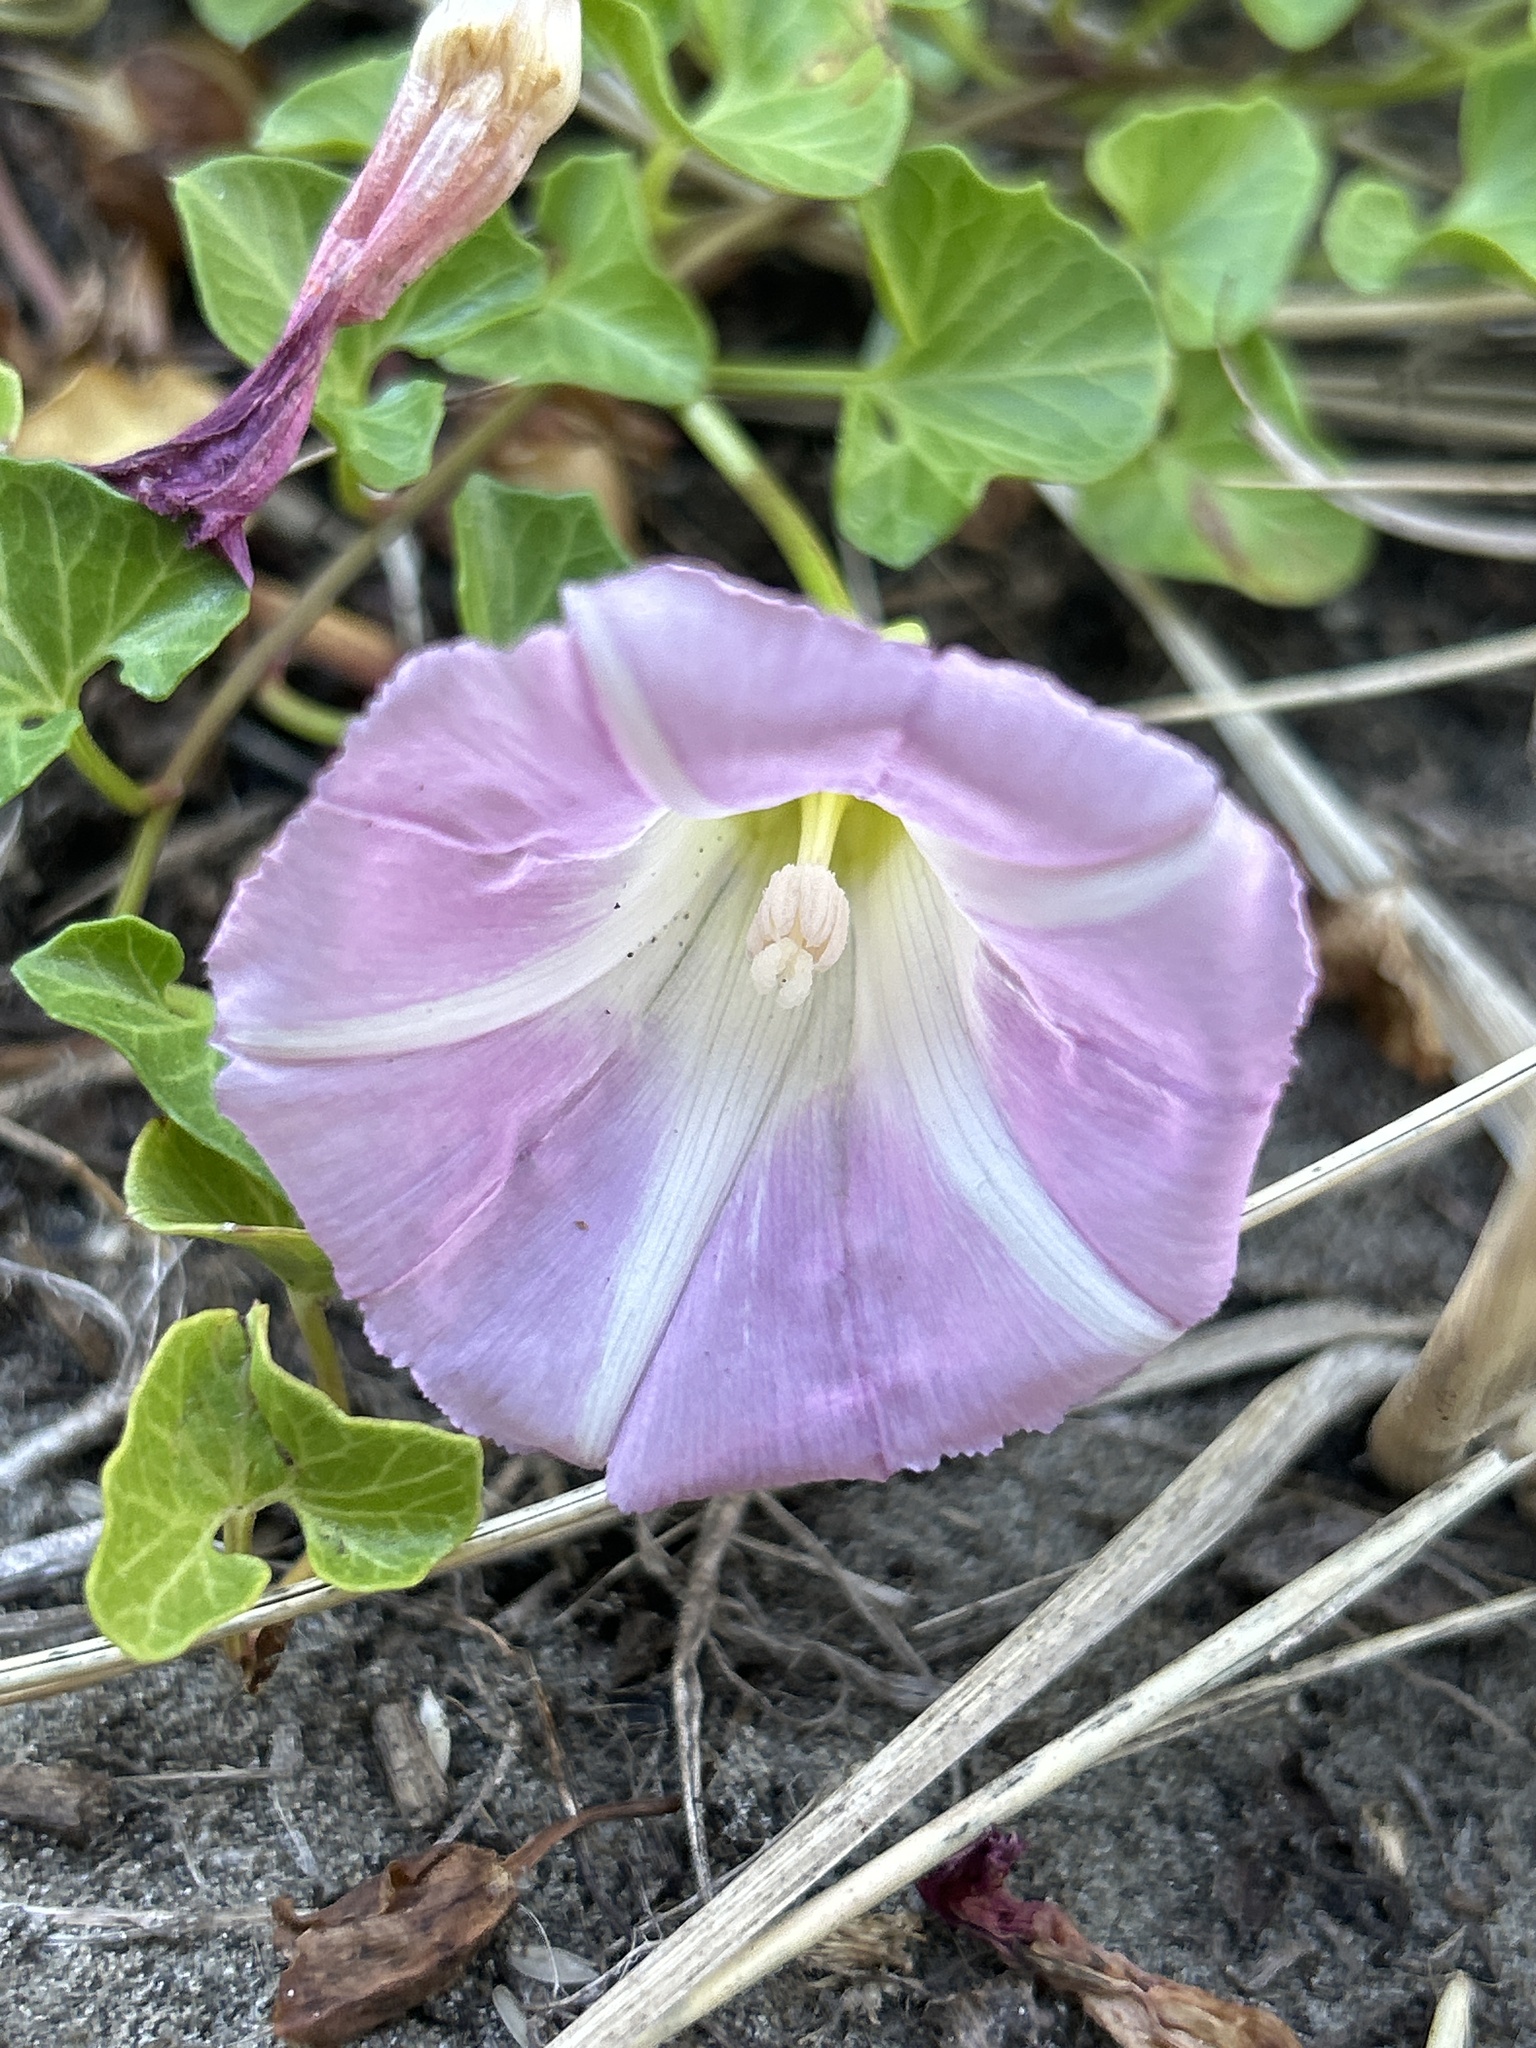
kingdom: Plantae
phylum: Tracheophyta
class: Magnoliopsida
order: Solanales
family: Convolvulaceae
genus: Calystegia
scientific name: Calystegia soldanella
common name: Sea bindweed
